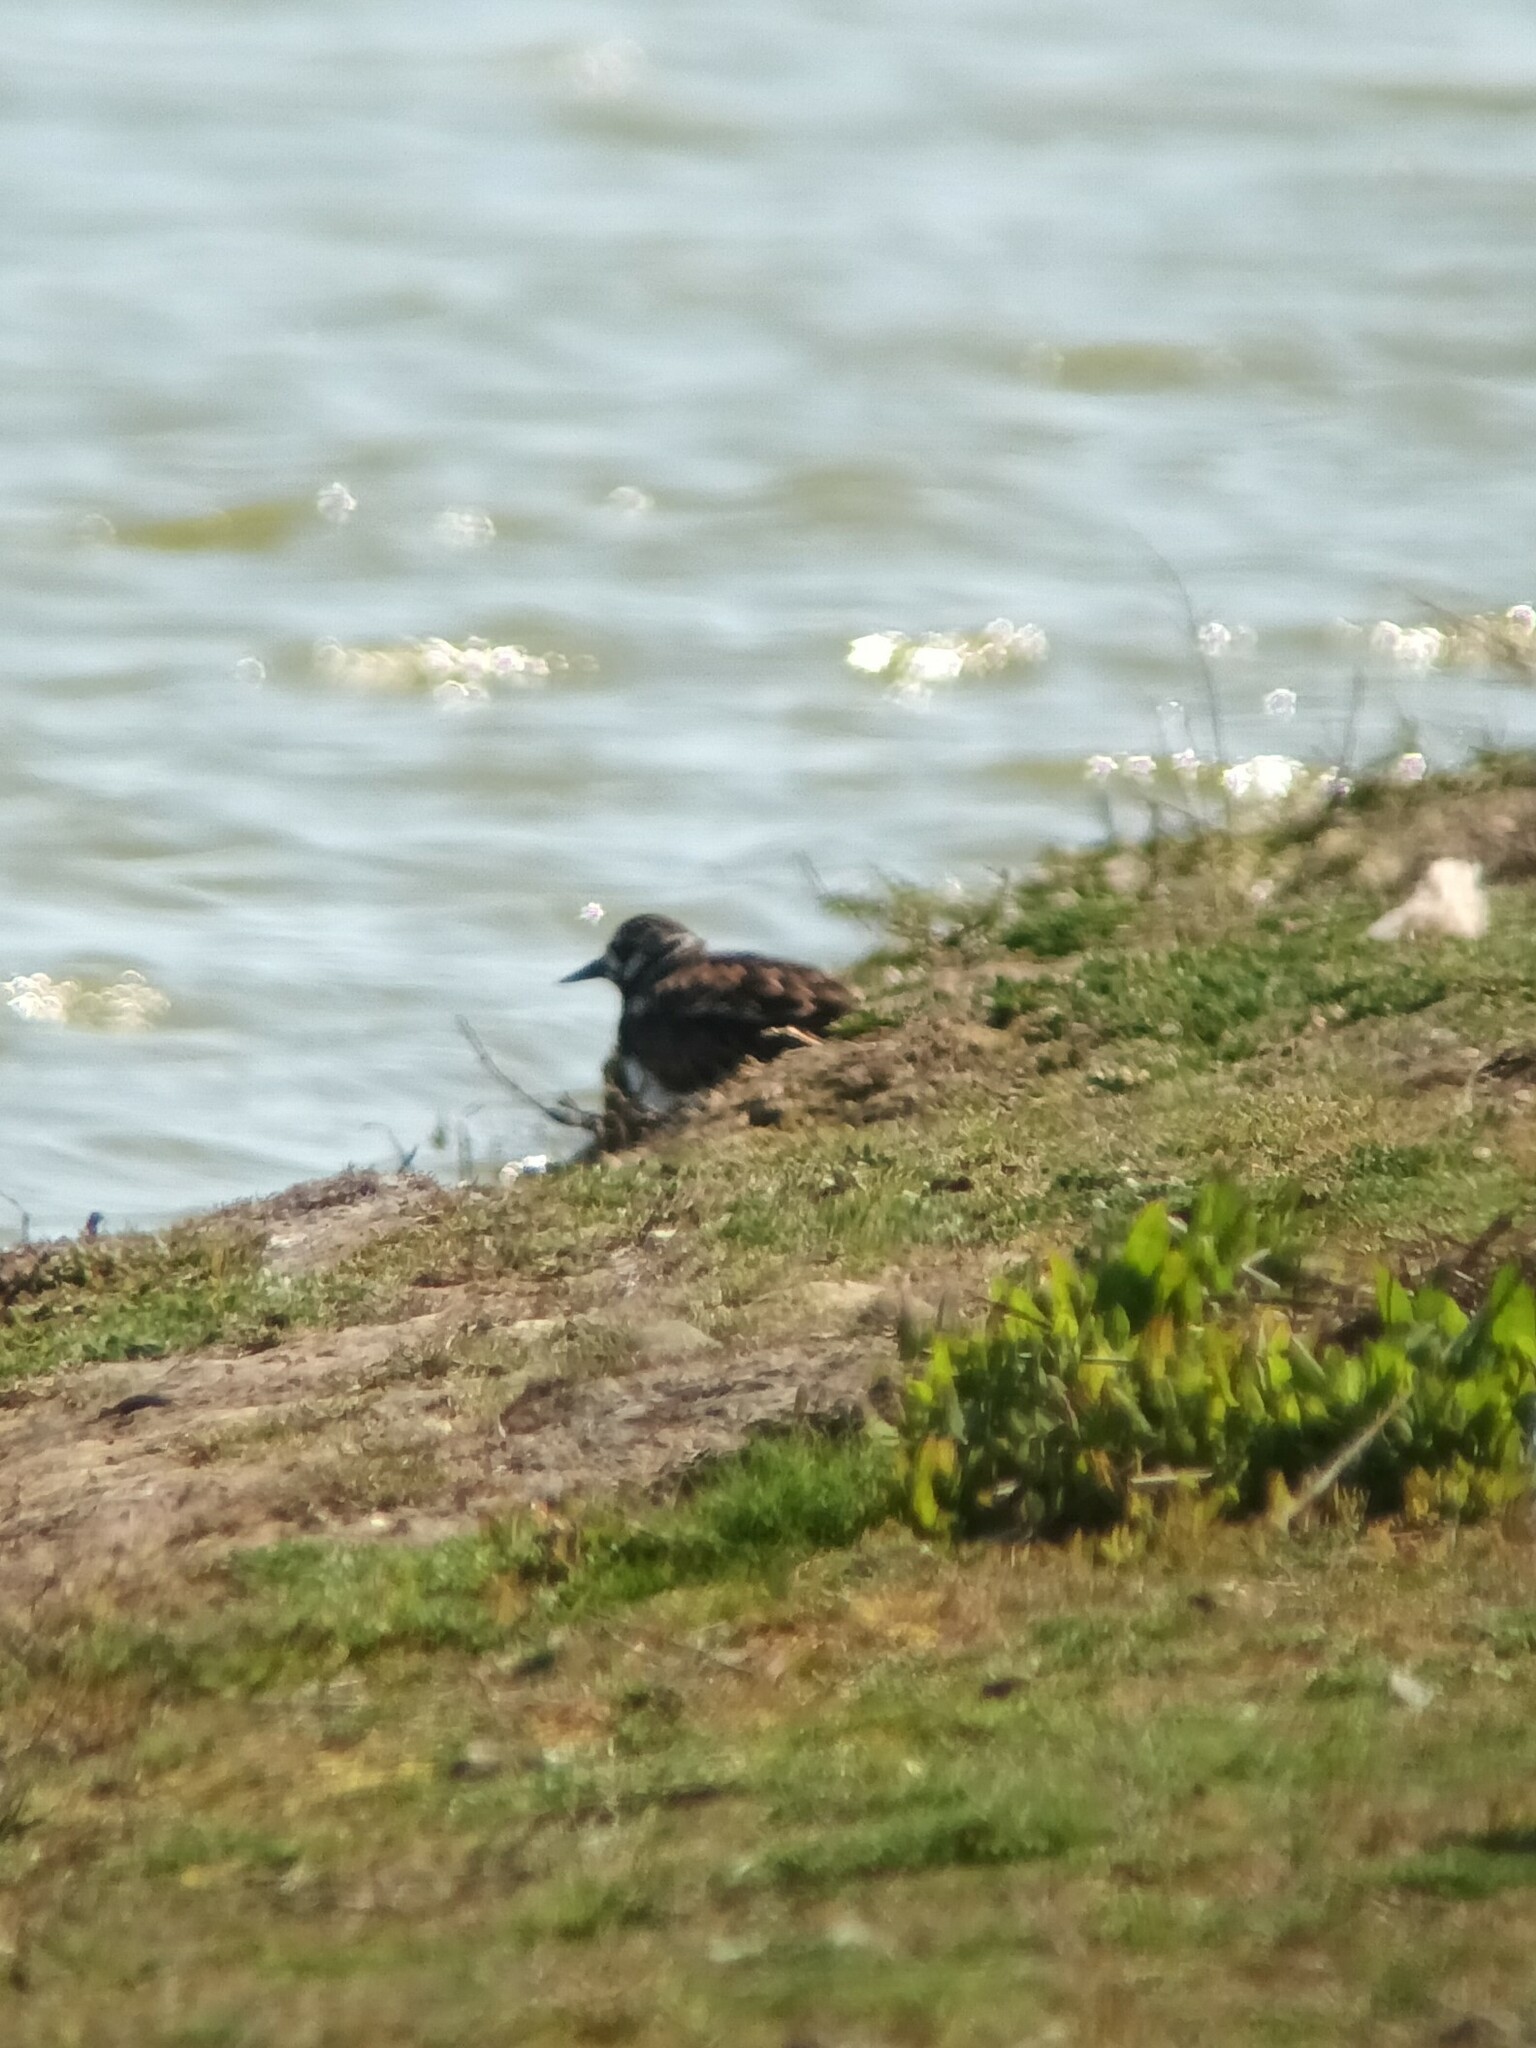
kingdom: Animalia
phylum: Chordata
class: Aves
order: Charadriiformes
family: Scolopacidae
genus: Arenaria
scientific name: Arenaria interpres
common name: Ruddy turnstone
